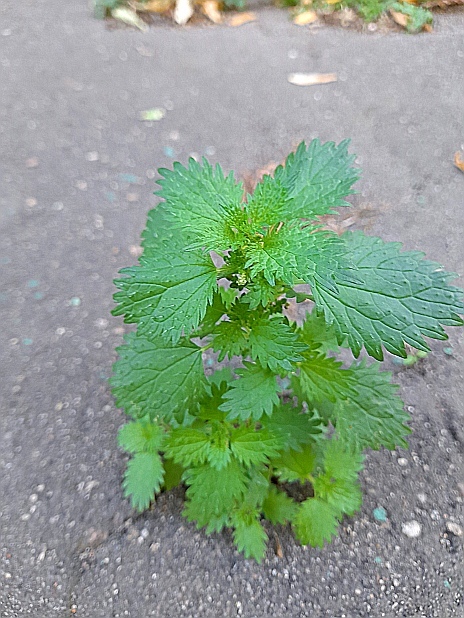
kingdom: Plantae
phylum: Tracheophyta
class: Magnoliopsida
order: Rosales
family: Urticaceae
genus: Urtica
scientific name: Urtica urens
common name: Dwarf nettle
